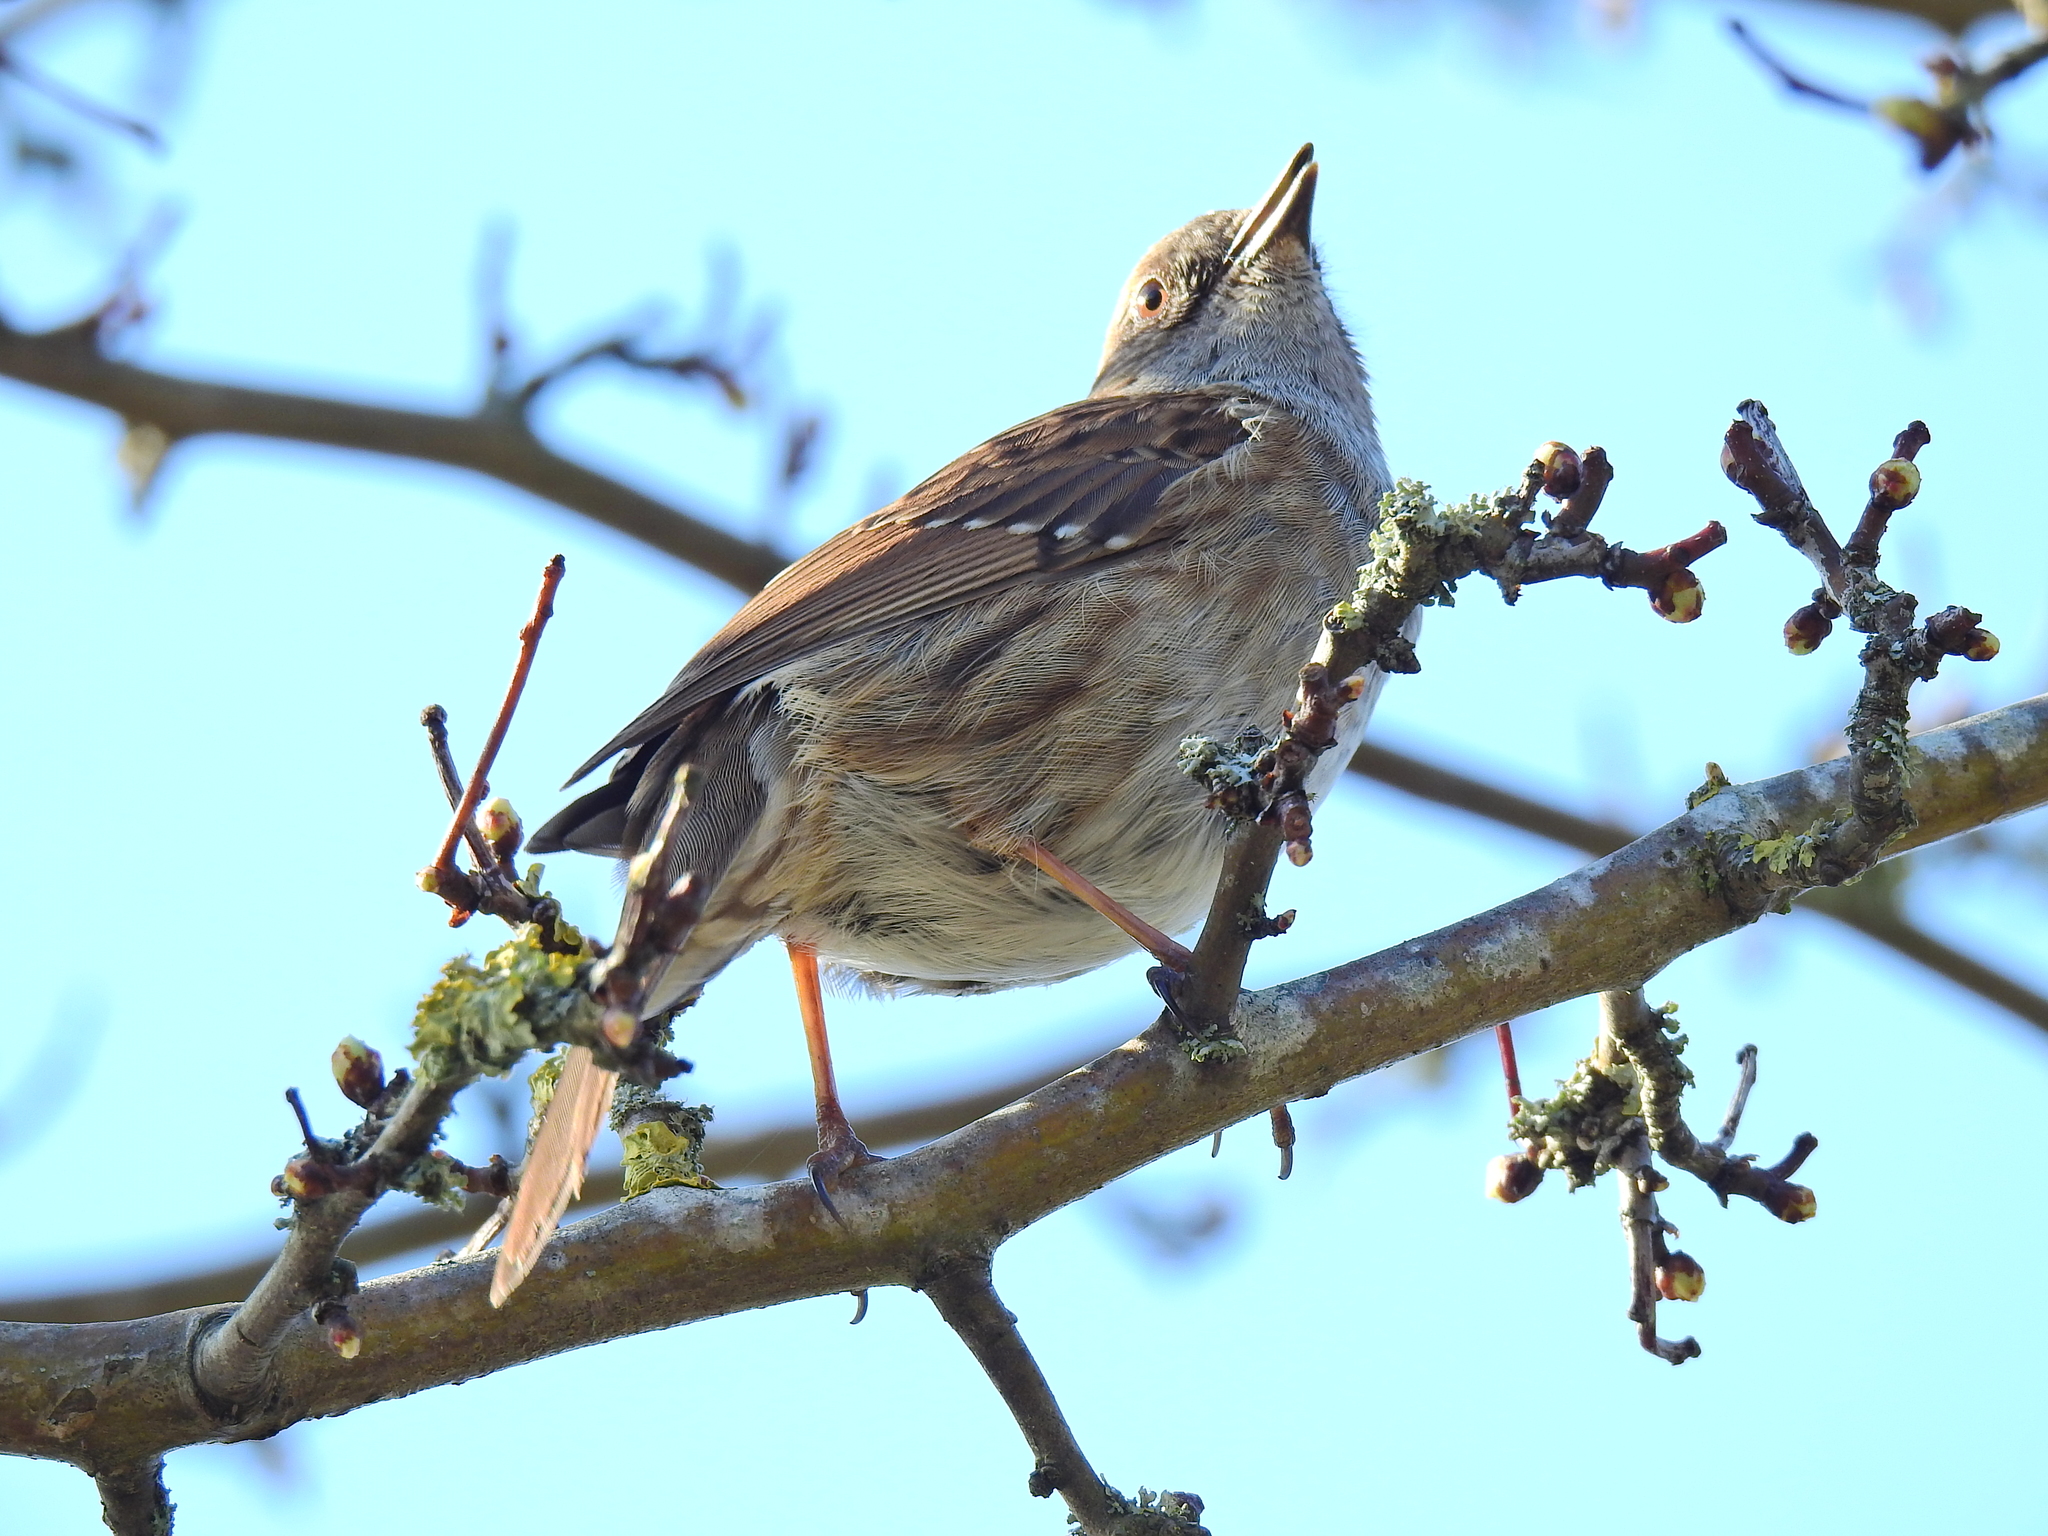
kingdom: Animalia
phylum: Chordata
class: Aves
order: Passeriformes
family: Prunellidae
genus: Prunella
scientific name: Prunella modularis
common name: Dunnock
